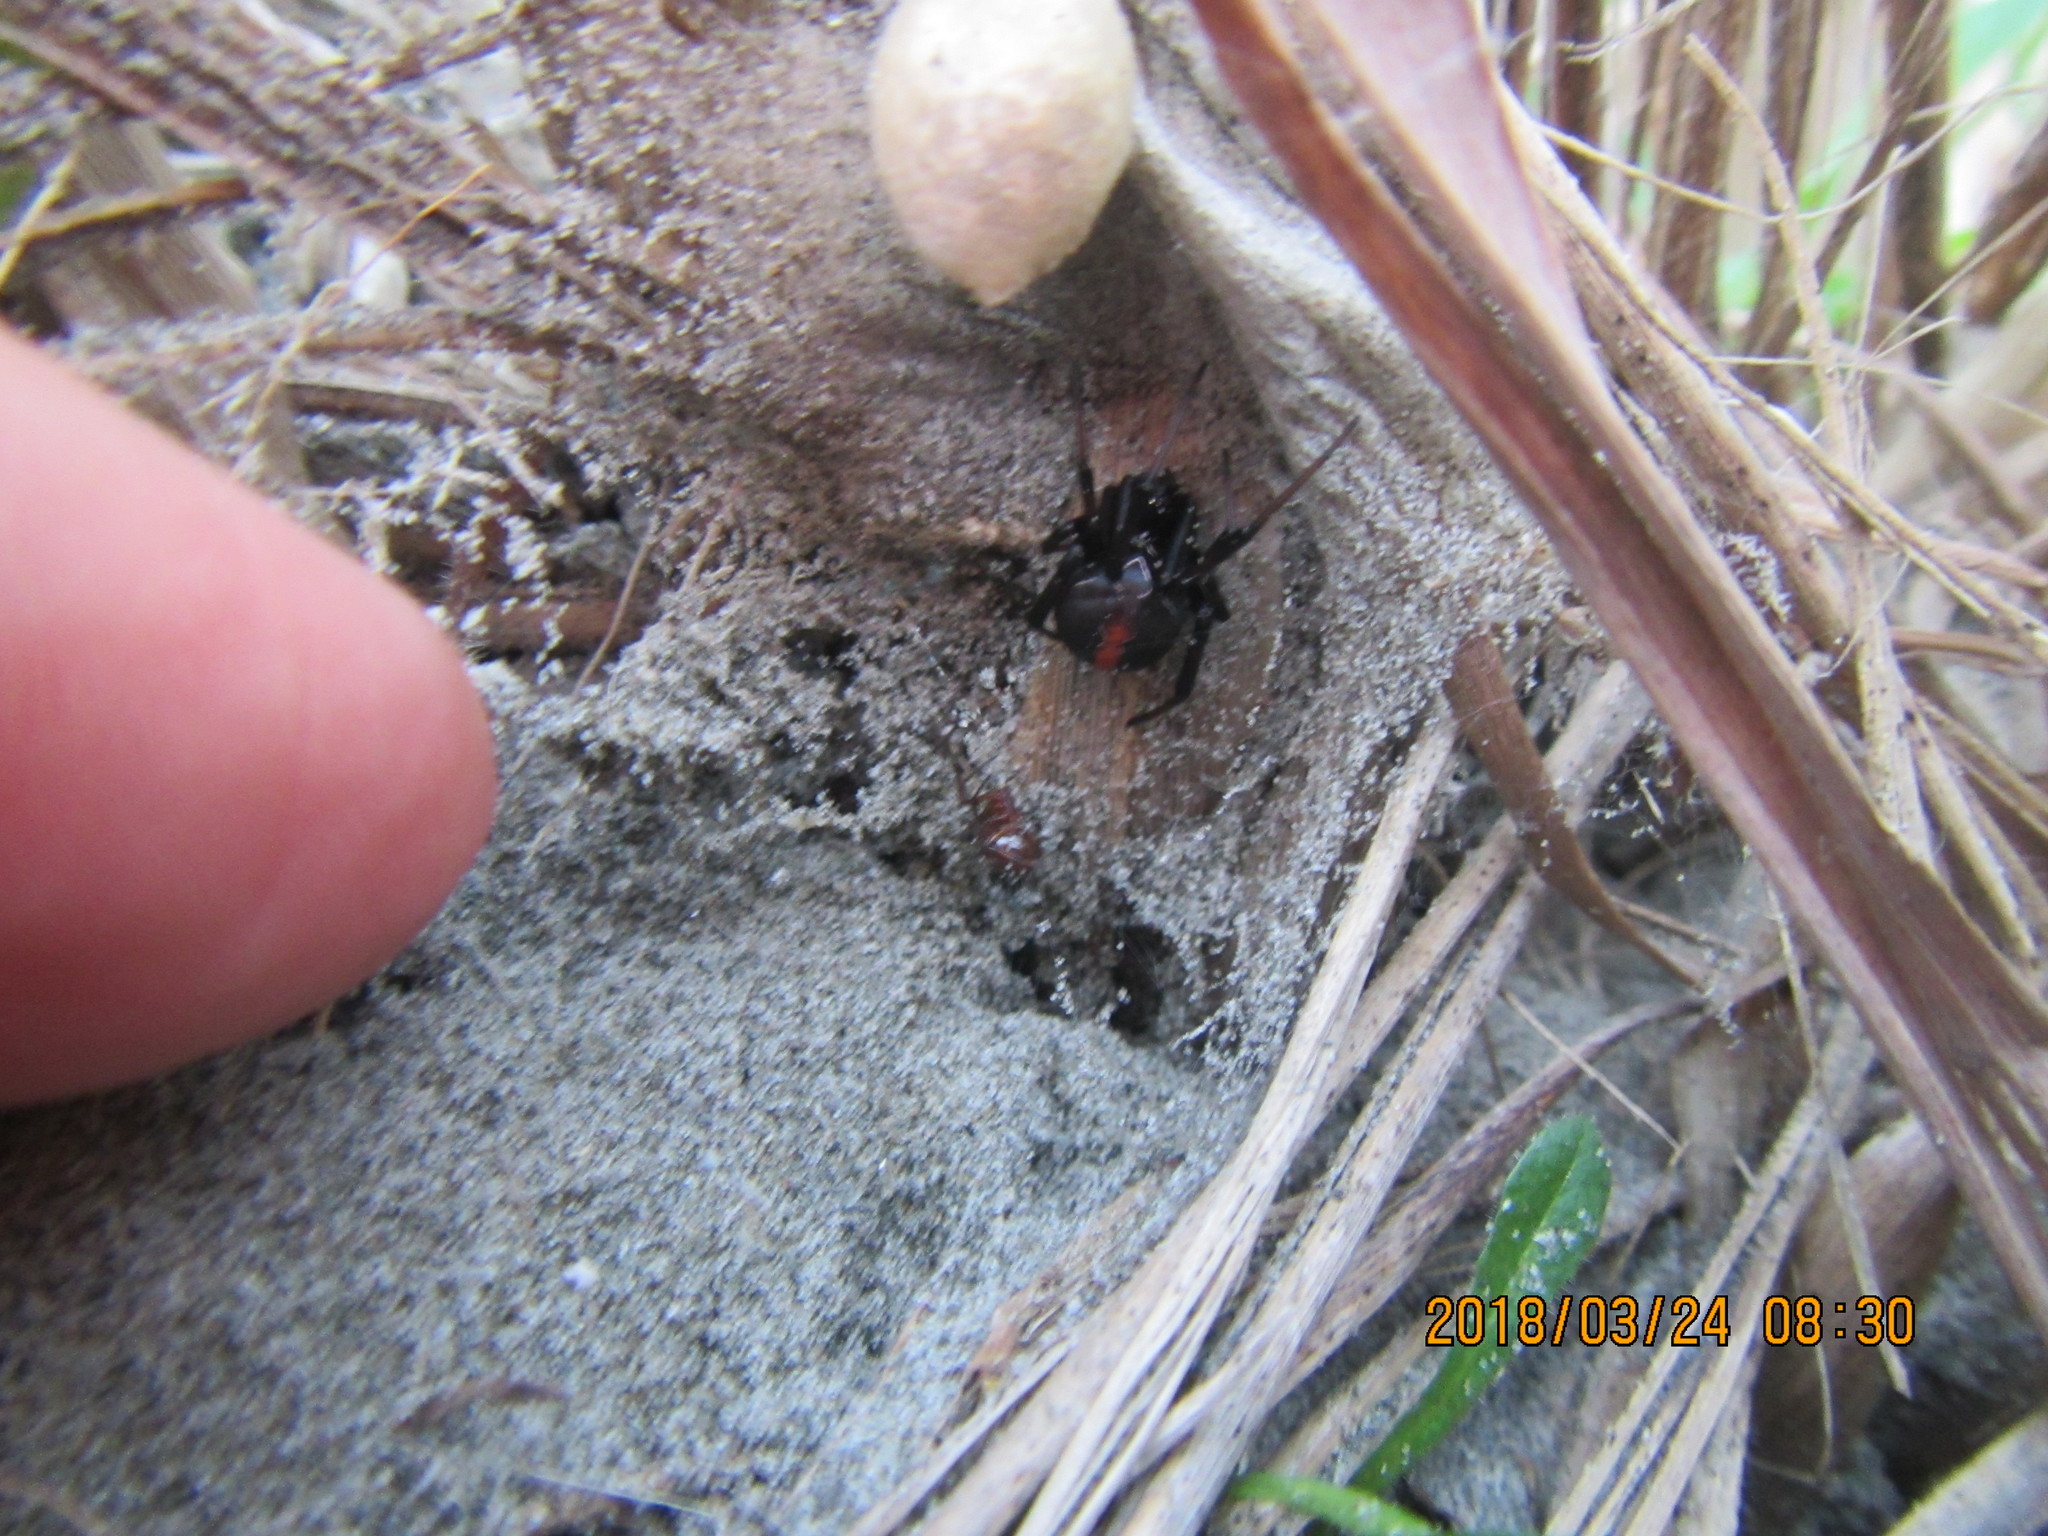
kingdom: Animalia
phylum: Arthropoda
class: Arachnida
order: Araneae
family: Theridiidae
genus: Latrodectus
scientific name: Latrodectus katipo
